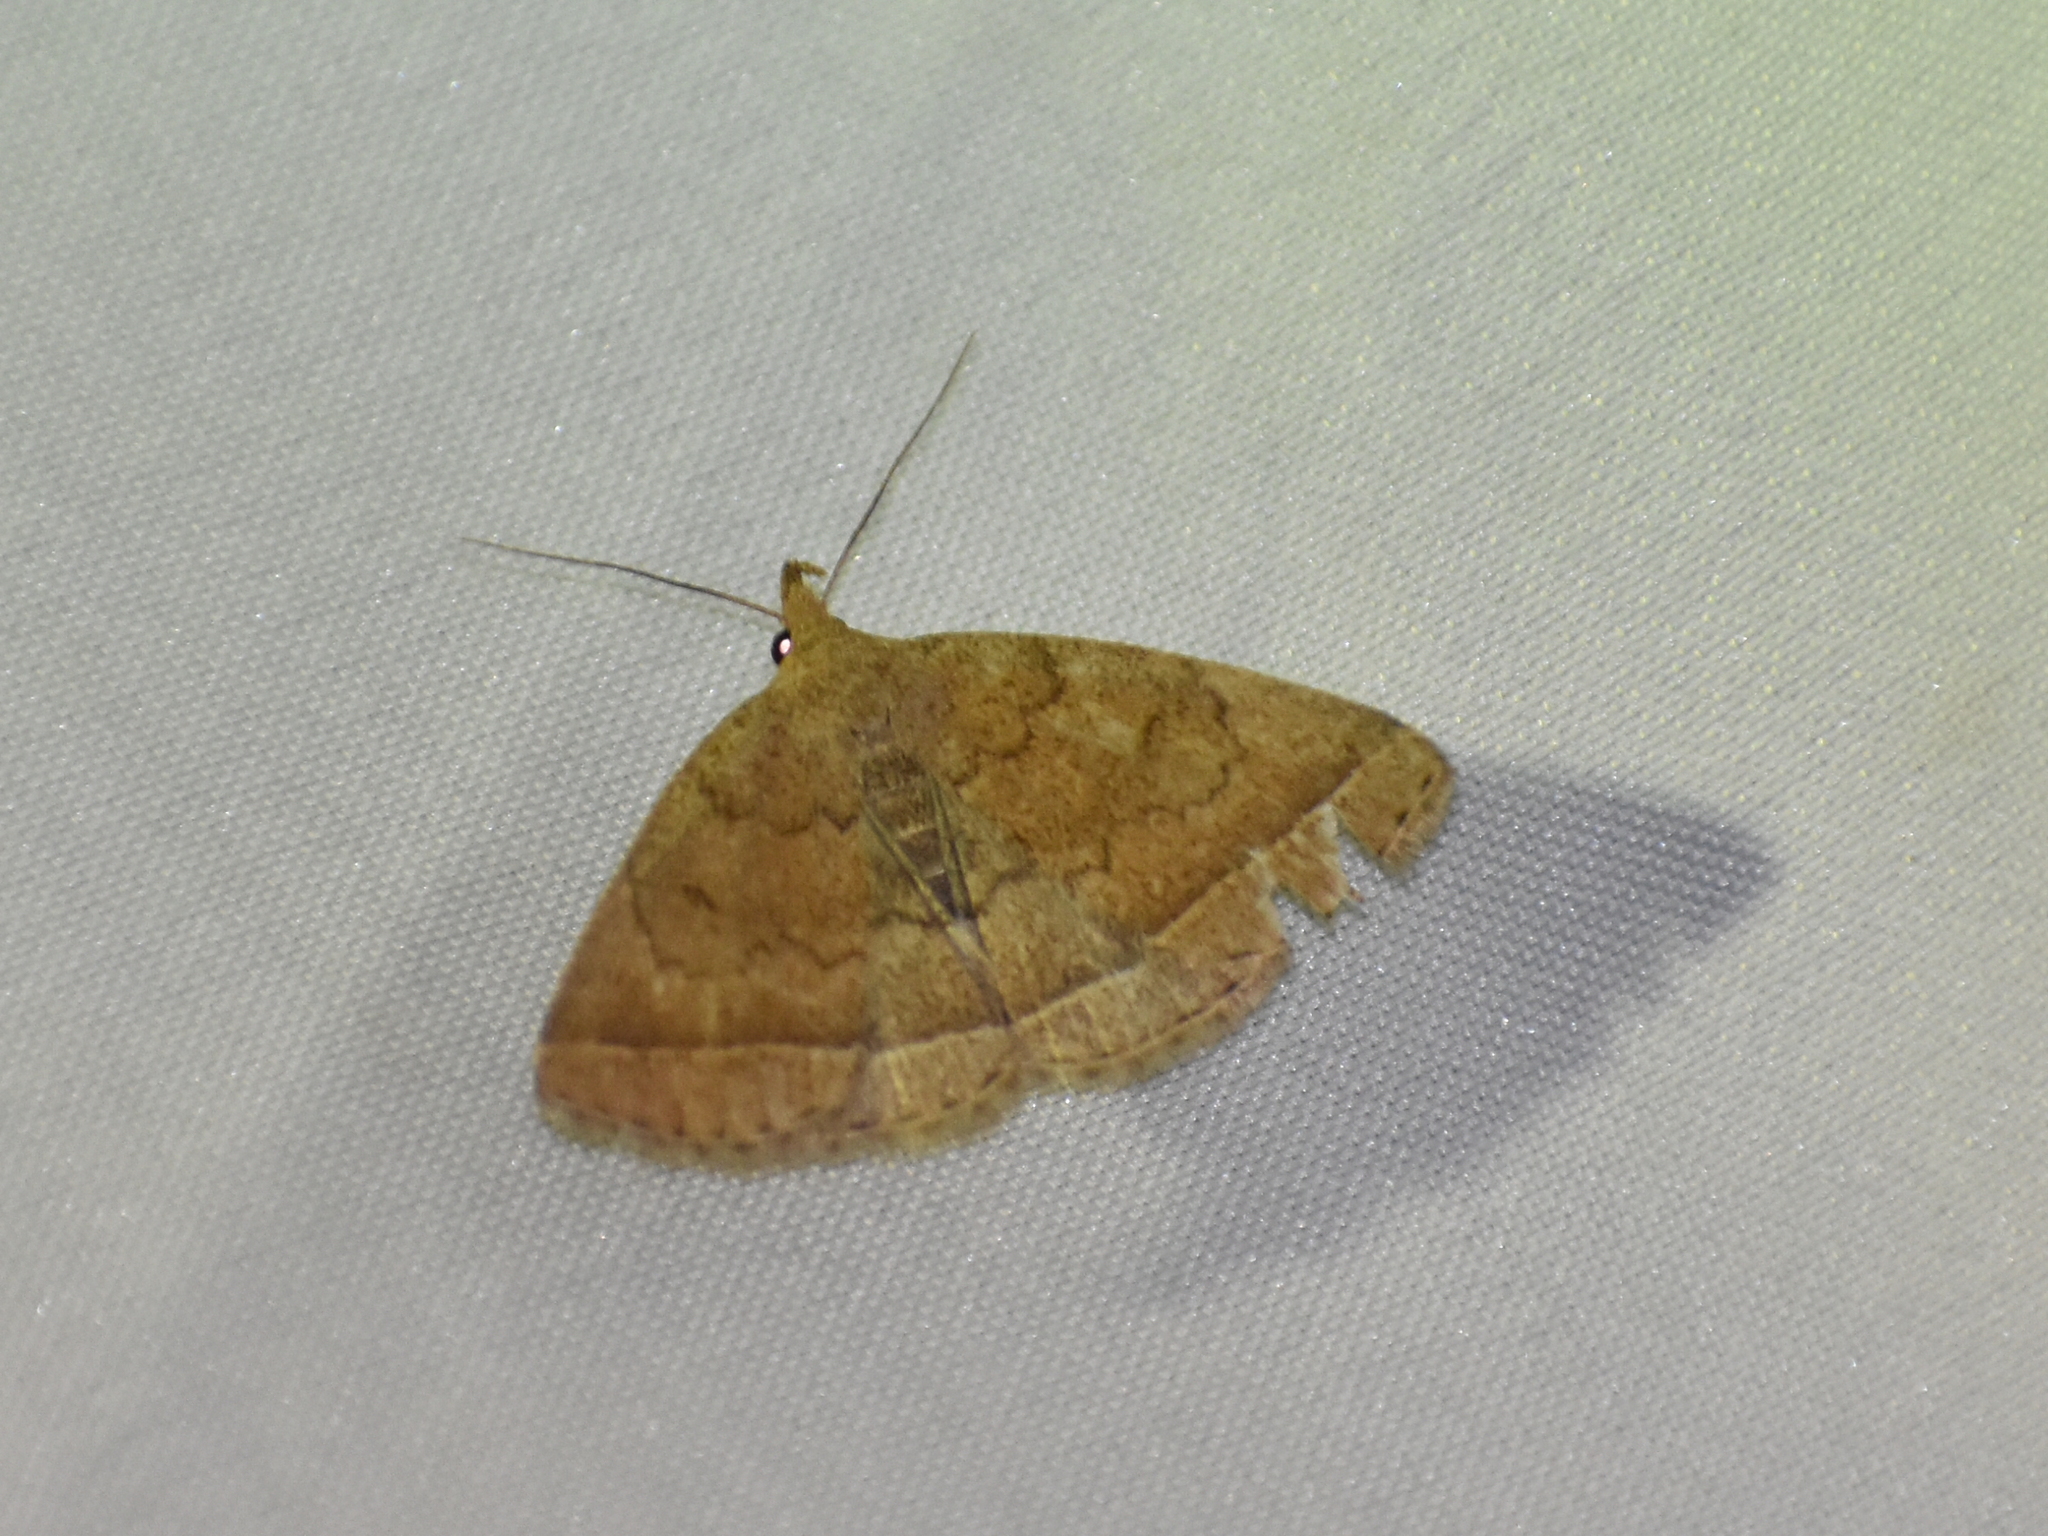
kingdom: Animalia
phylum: Arthropoda
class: Insecta
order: Lepidoptera
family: Erebidae
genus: Zanclognatha
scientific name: Zanclognatha jacchusalis
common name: Yellowish zanclognatha
